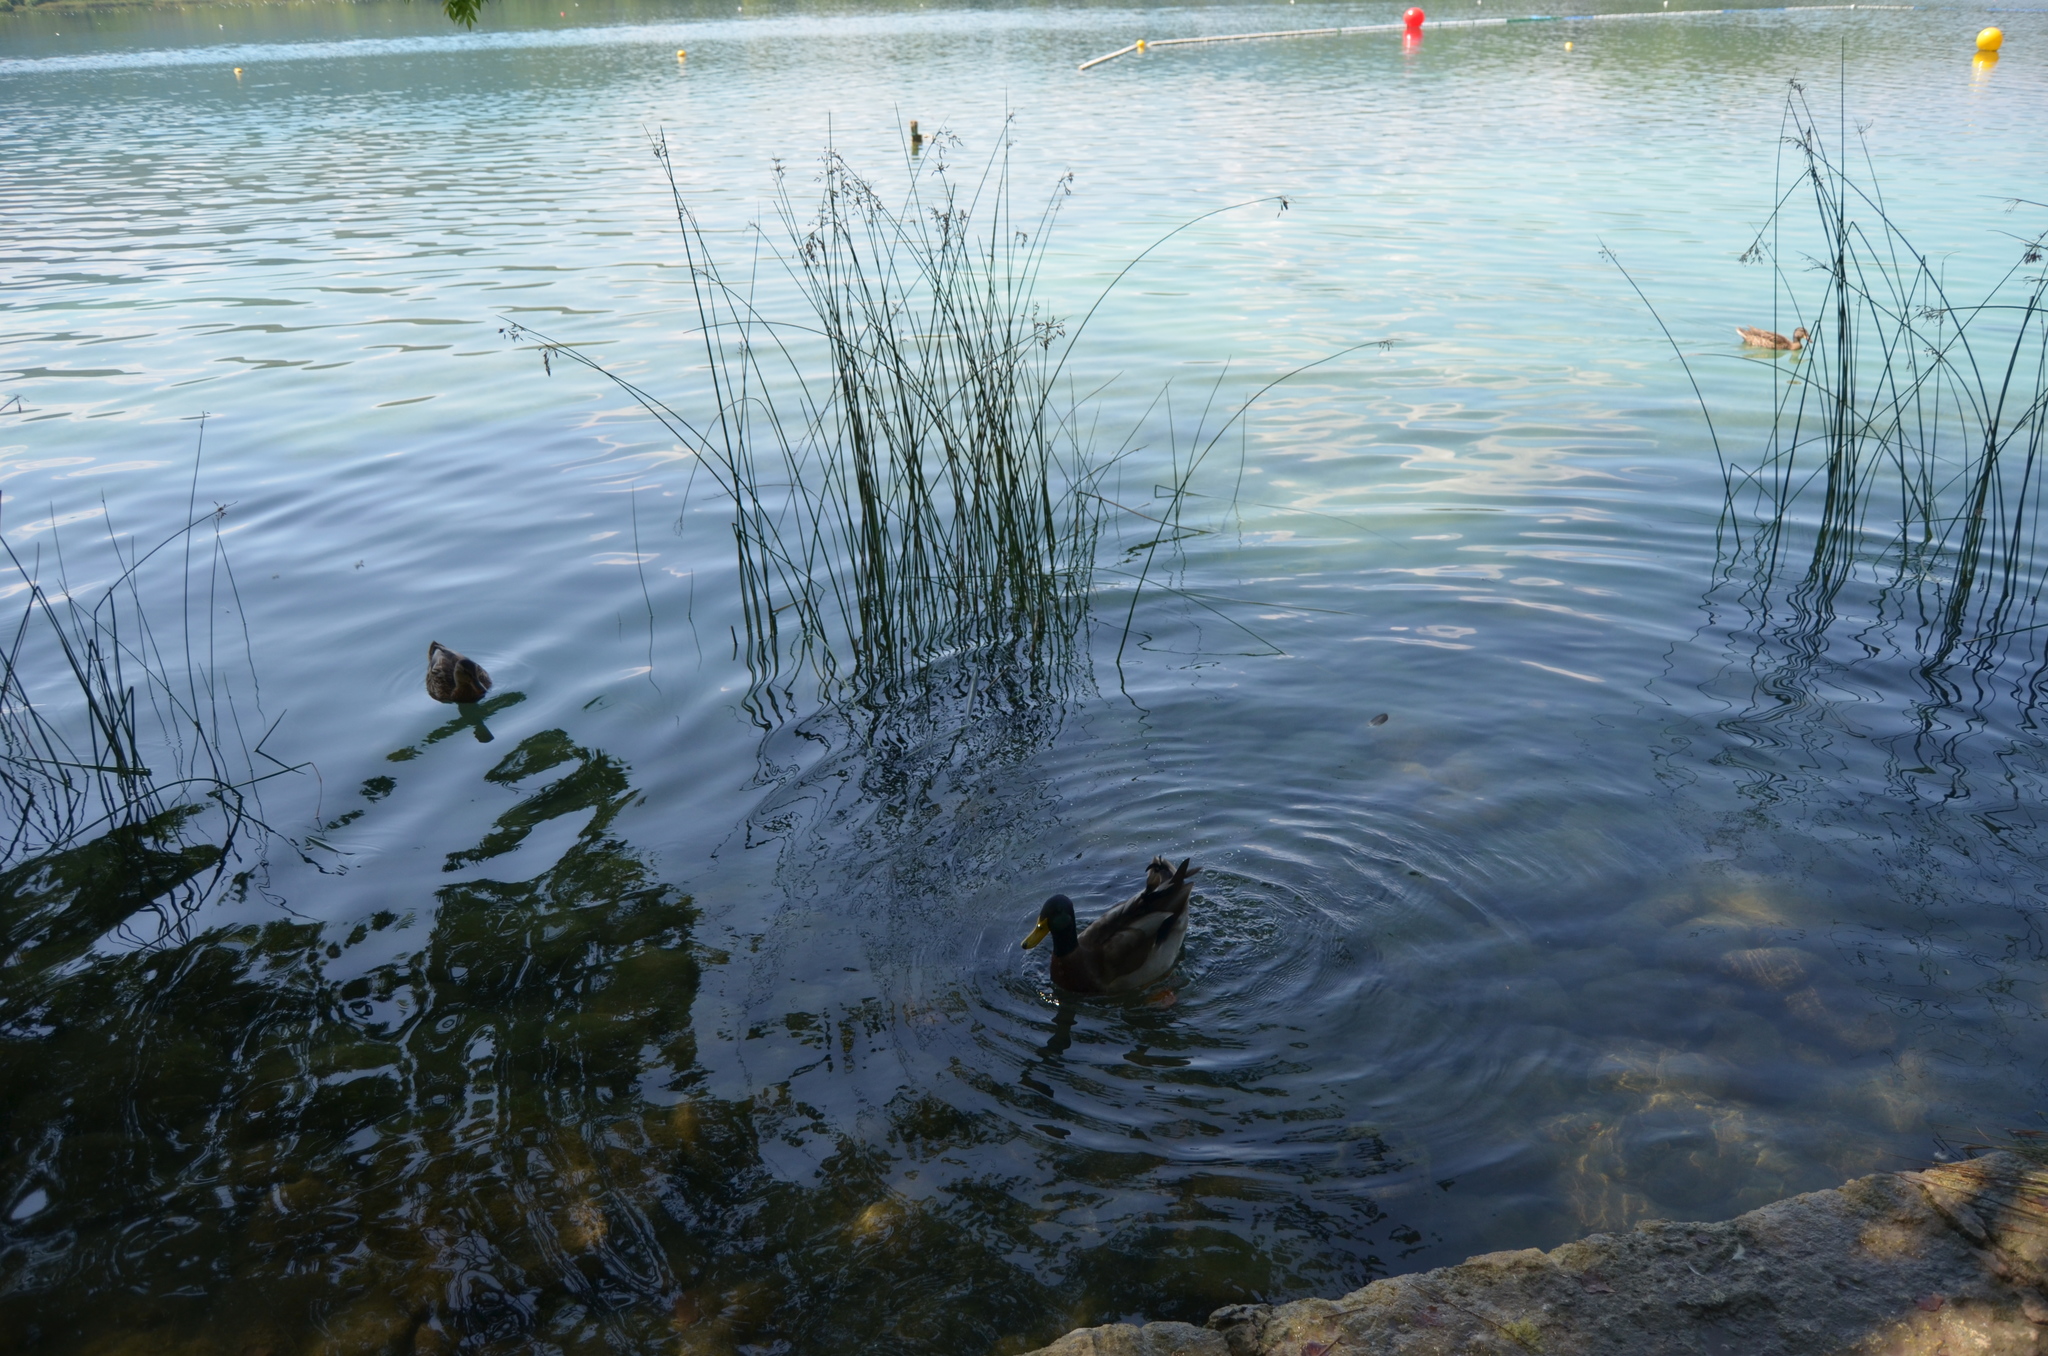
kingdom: Animalia
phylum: Chordata
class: Aves
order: Anseriformes
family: Anatidae
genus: Anas
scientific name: Anas platyrhynchos
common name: Mallard
